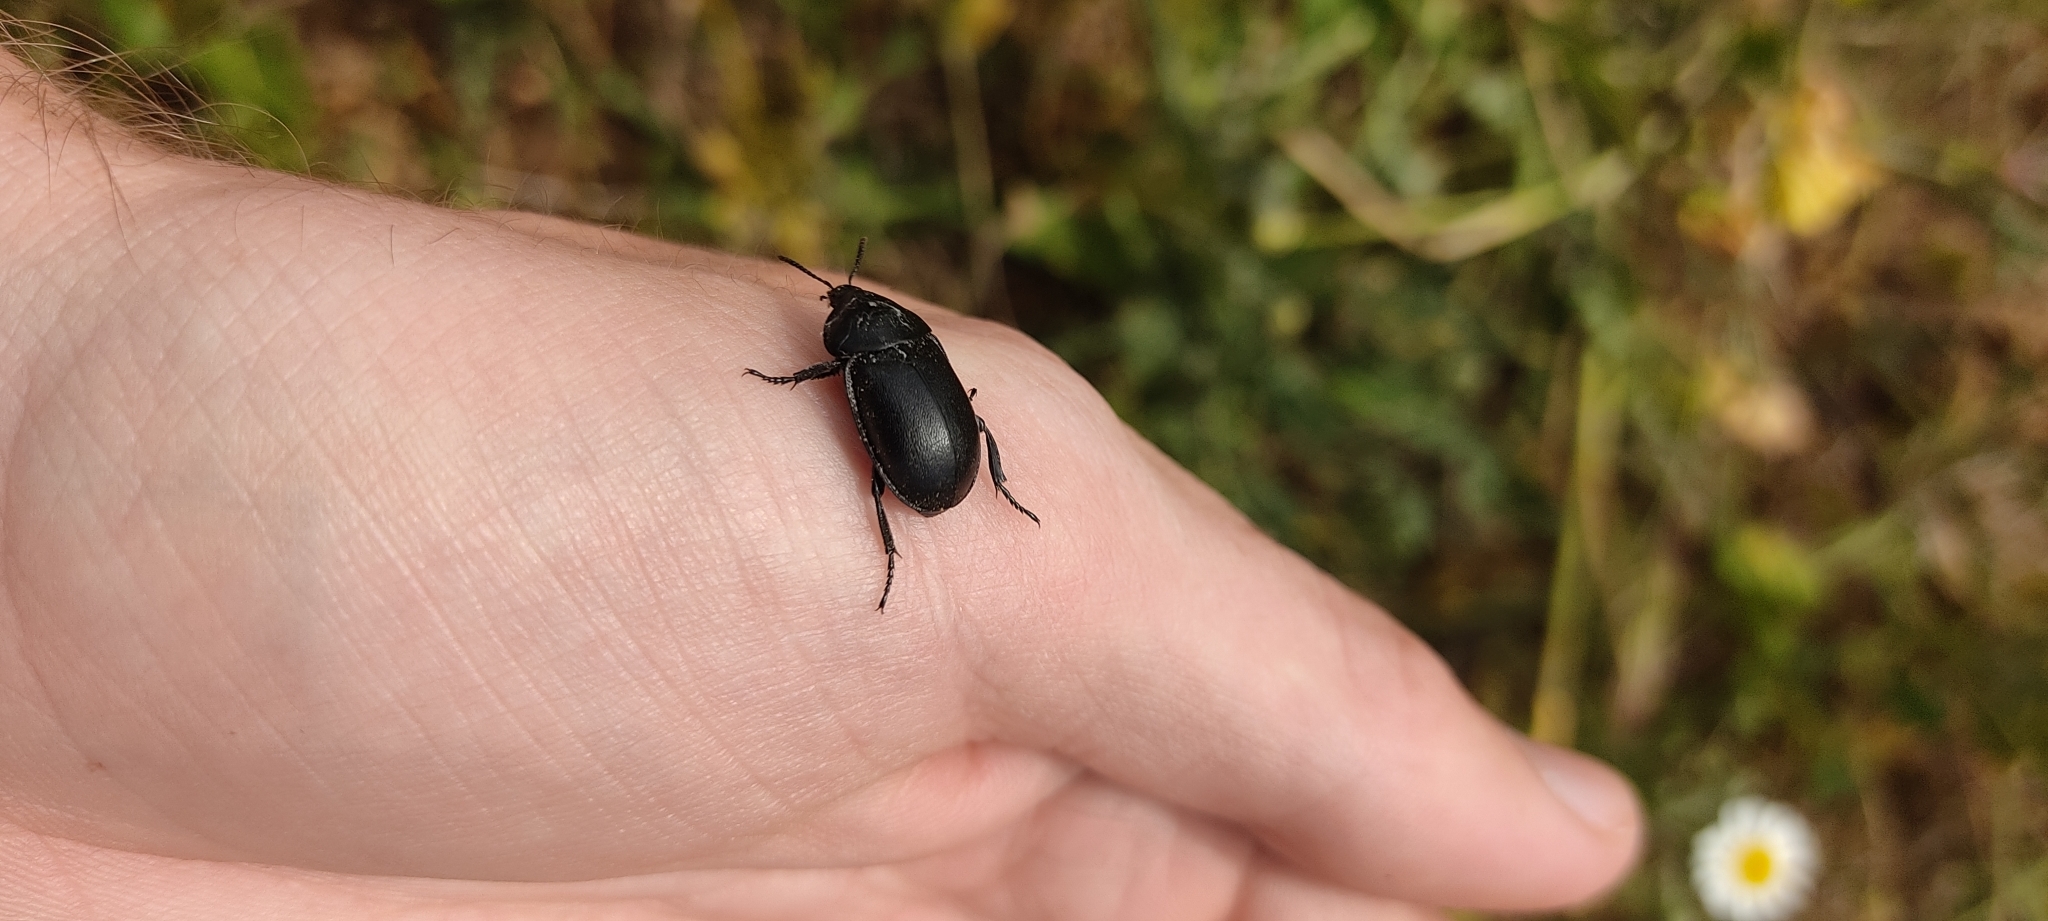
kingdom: Animalia
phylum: Arthropoda
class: Insecta
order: Coleoptera
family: Staphylinidae
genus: Silpha
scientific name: Silpha laevigata
